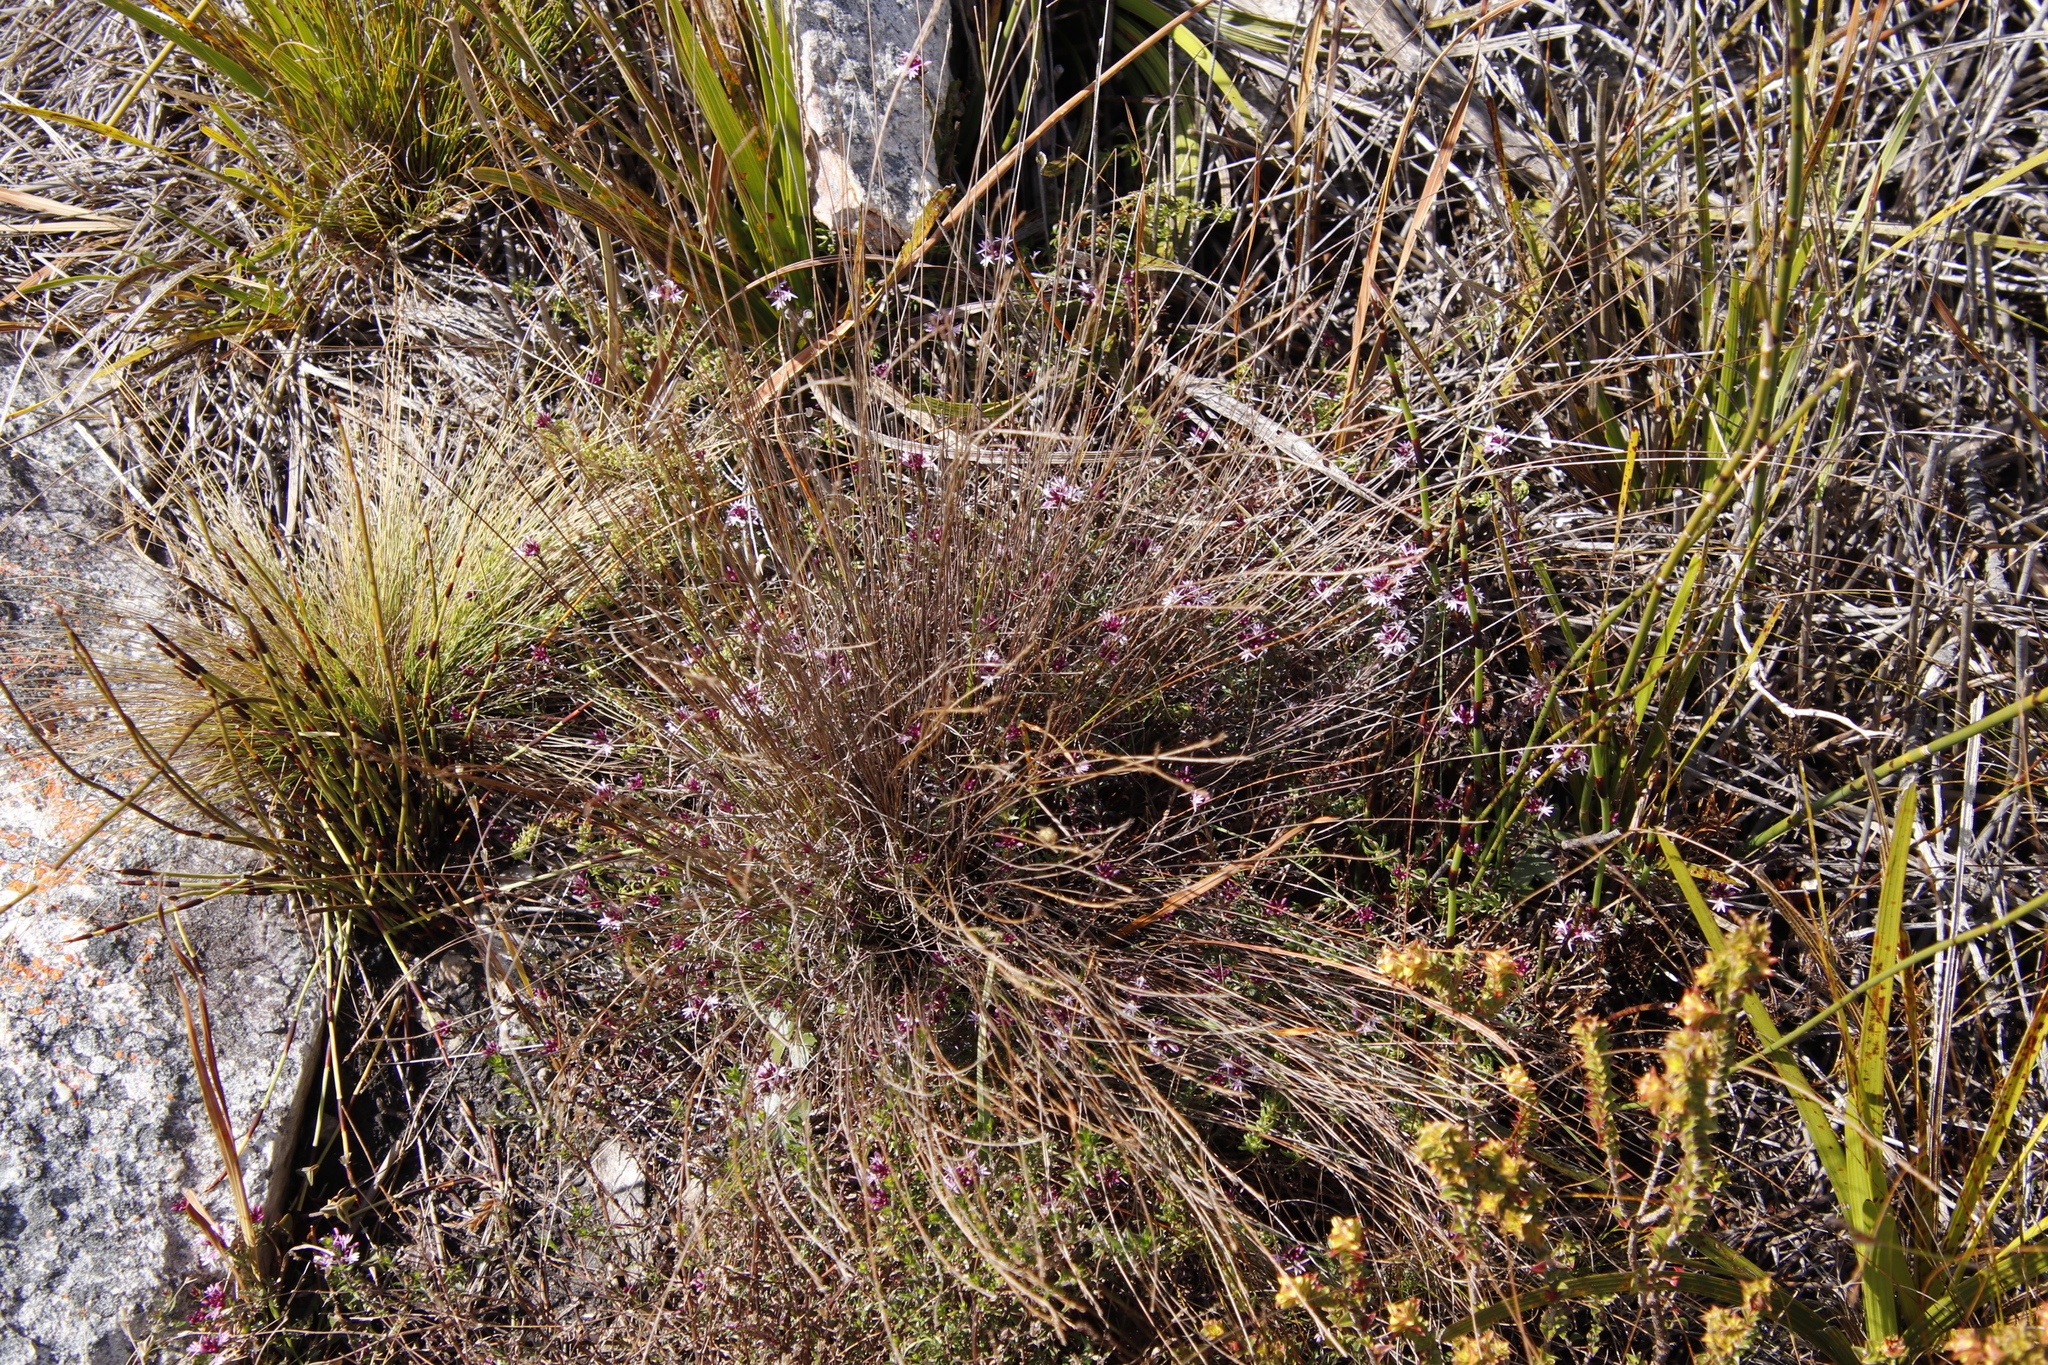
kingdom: Plantae
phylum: Tracheophyta
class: Magnoliopsida
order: Asterales
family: Campanulaceae
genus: Lobelia
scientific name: Lobelia jasionoides
